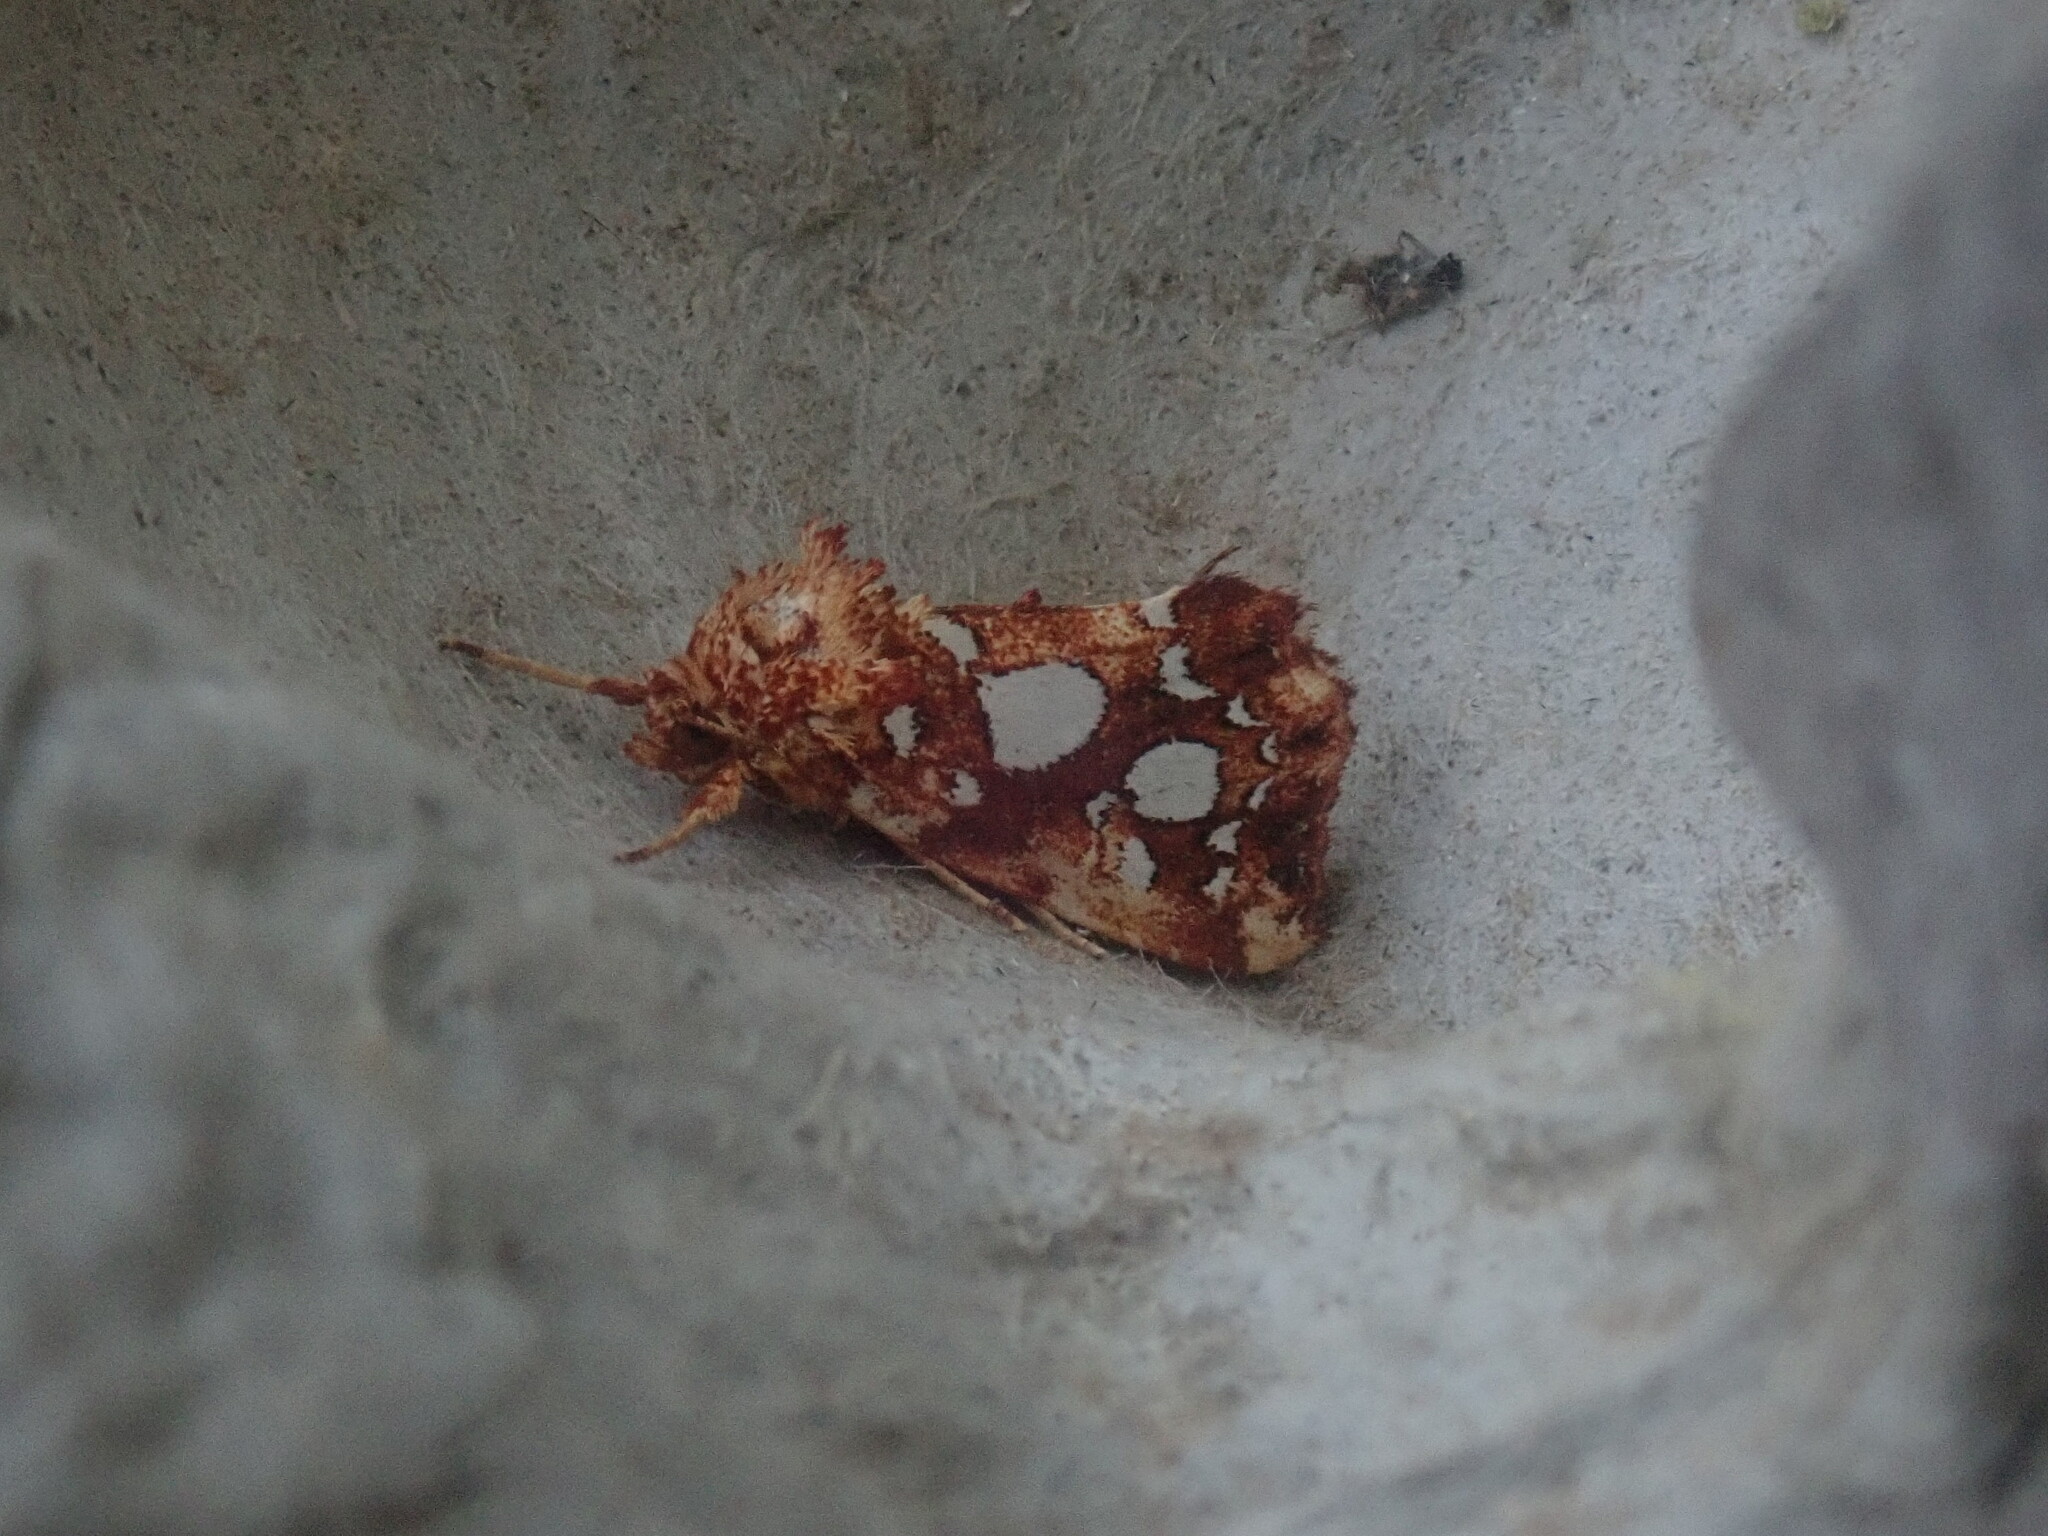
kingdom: Animalia
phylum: Arthropoda
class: Insecta
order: Lepidoptera
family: Noctuidae
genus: Callopistria
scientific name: Callopistria cordata
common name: Silver-spotted fern moth
